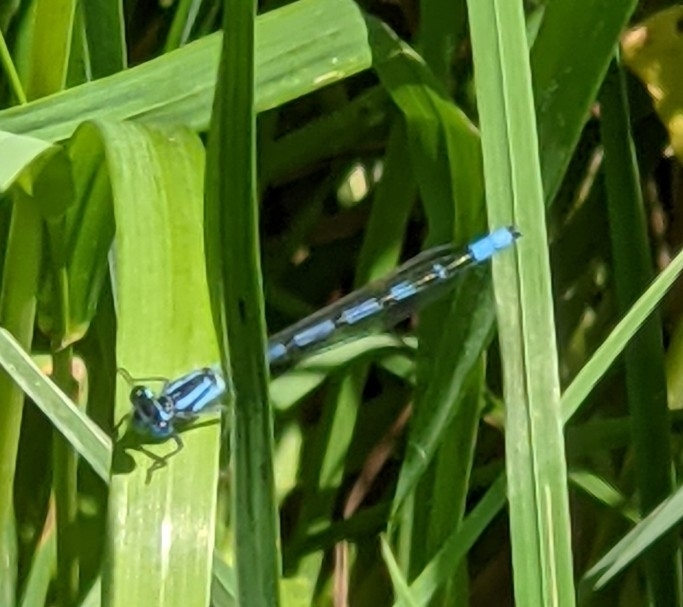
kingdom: Animalia
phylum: Arthropoda
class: Insecta
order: Odonata
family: Coenagrionidae
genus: Enallagma
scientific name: Enallagma cyathigerum
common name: Common blue damselfly
